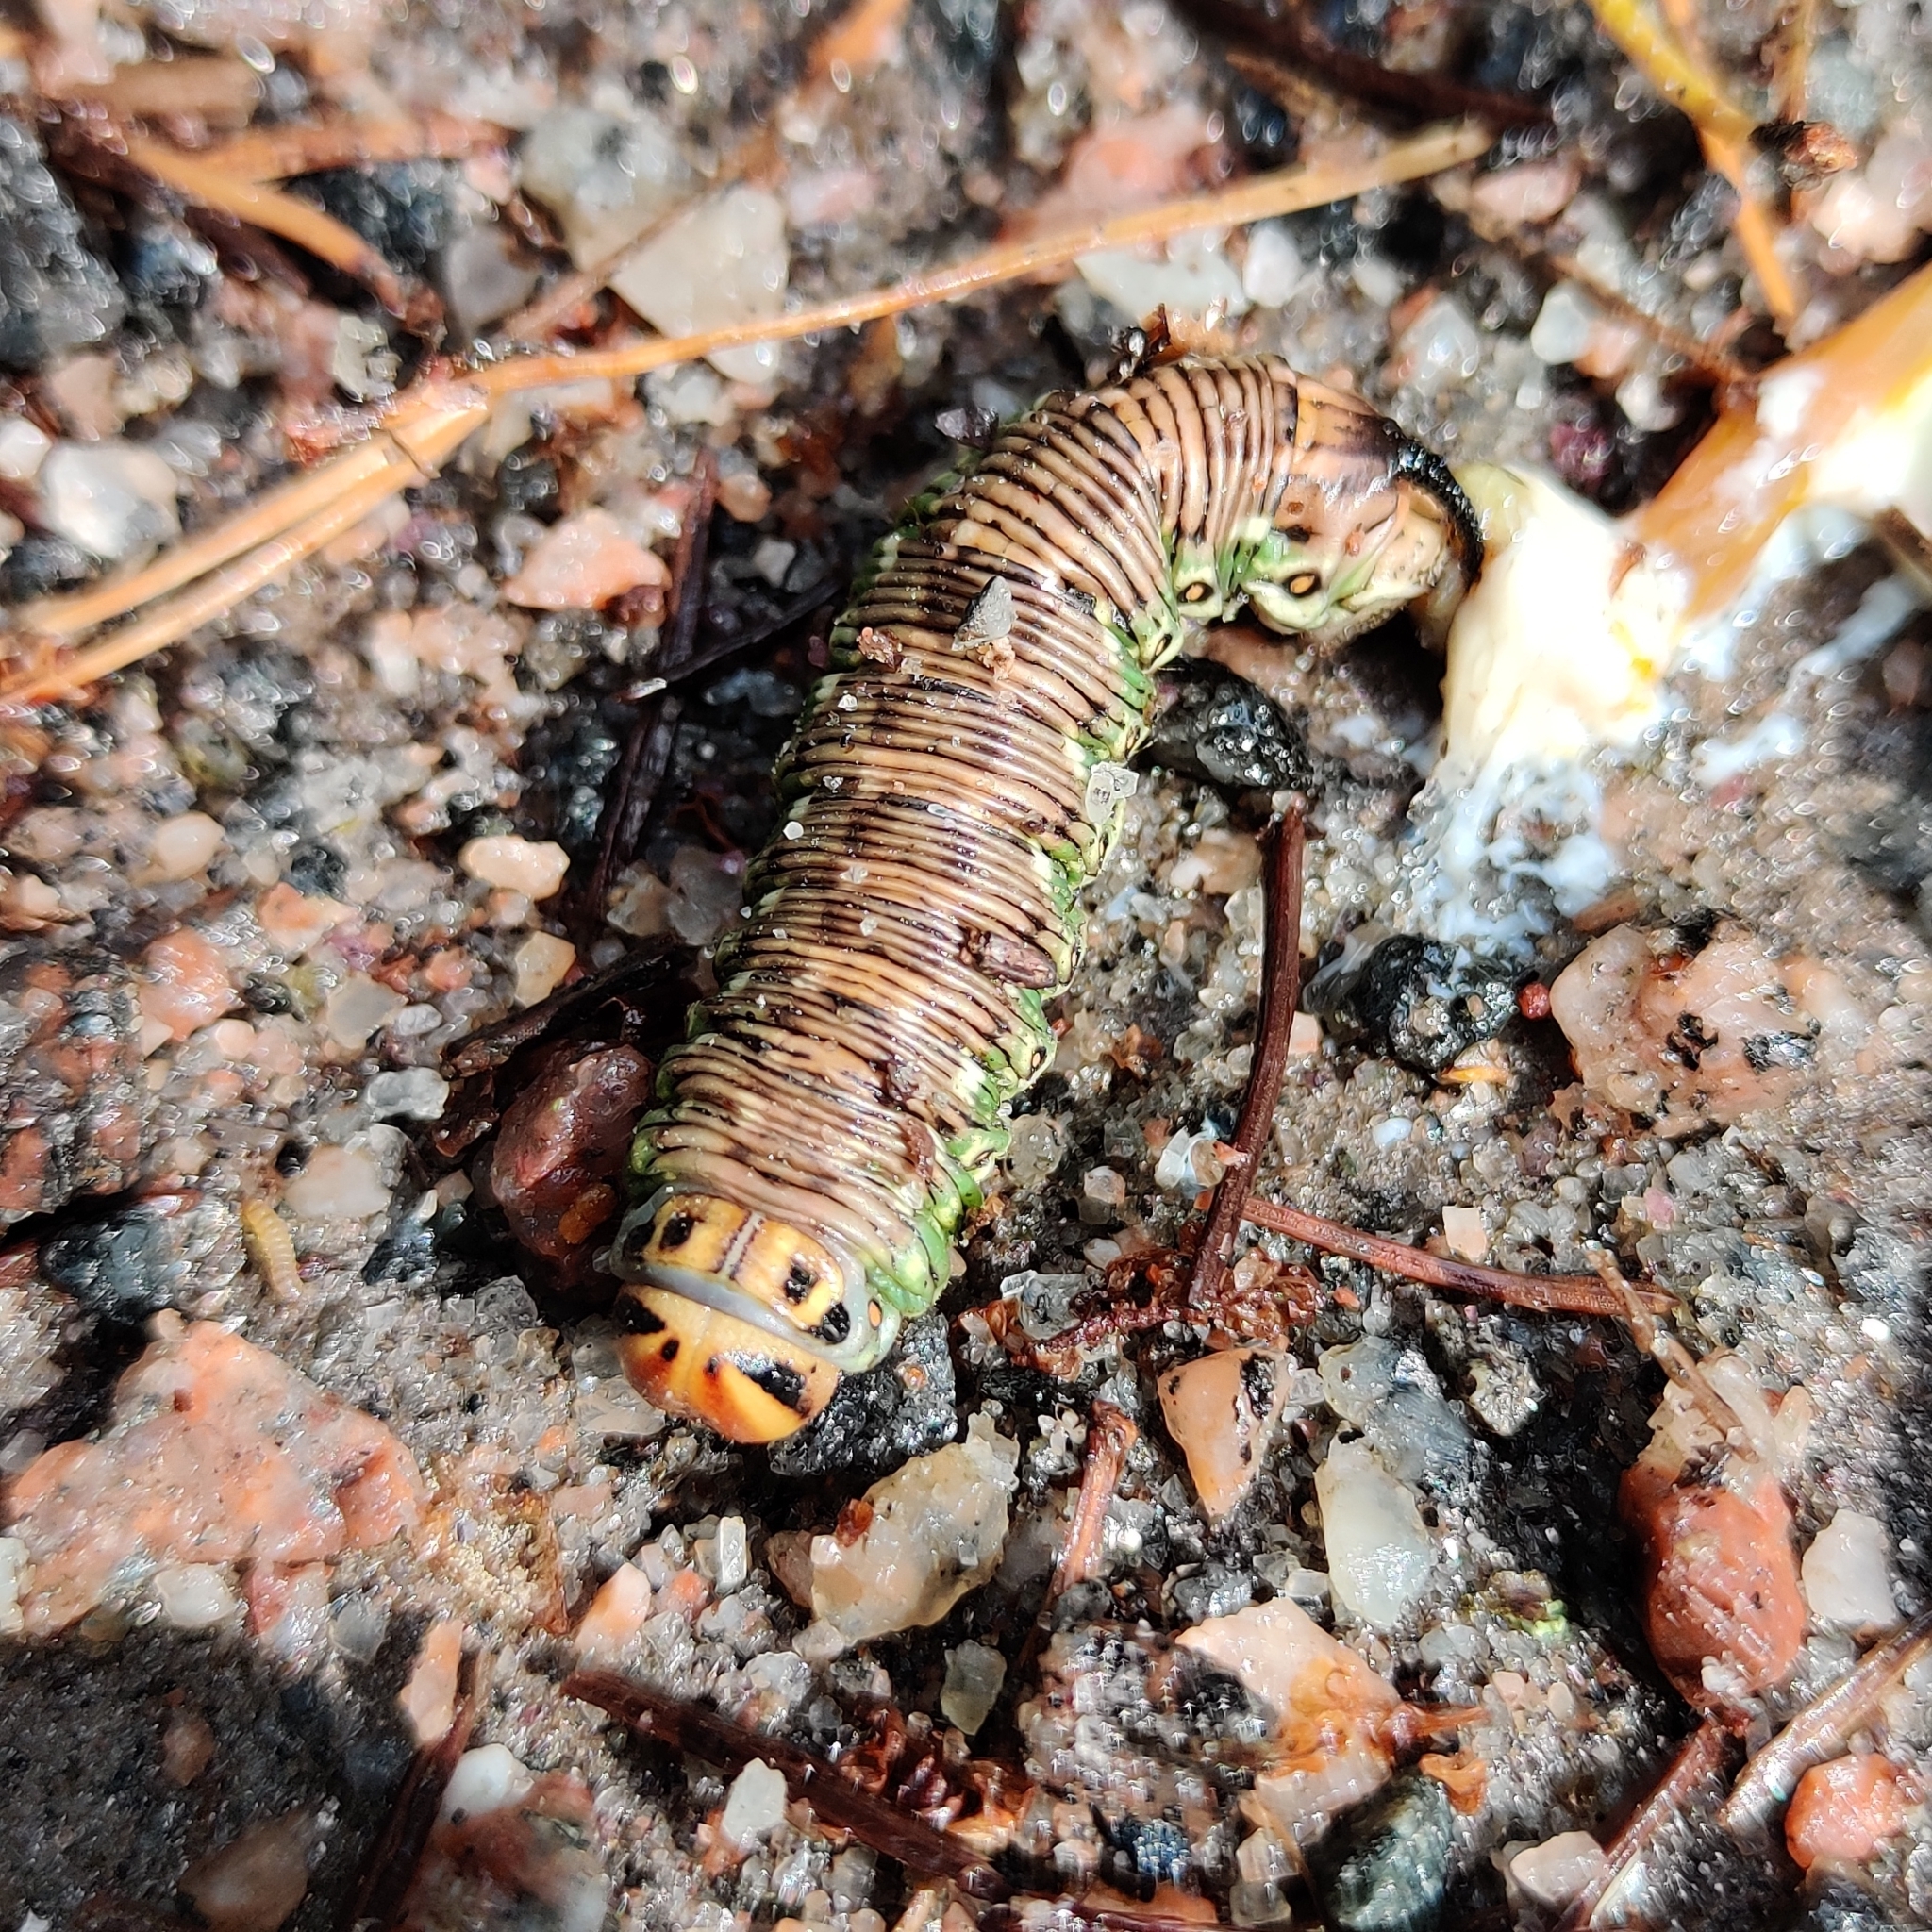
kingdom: Animalia
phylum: Arthropoda
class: Insecta
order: Lepidoptera
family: Sphingidae
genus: Sphinx
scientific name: Sphinx pinastri
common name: Pine hawk-moth
